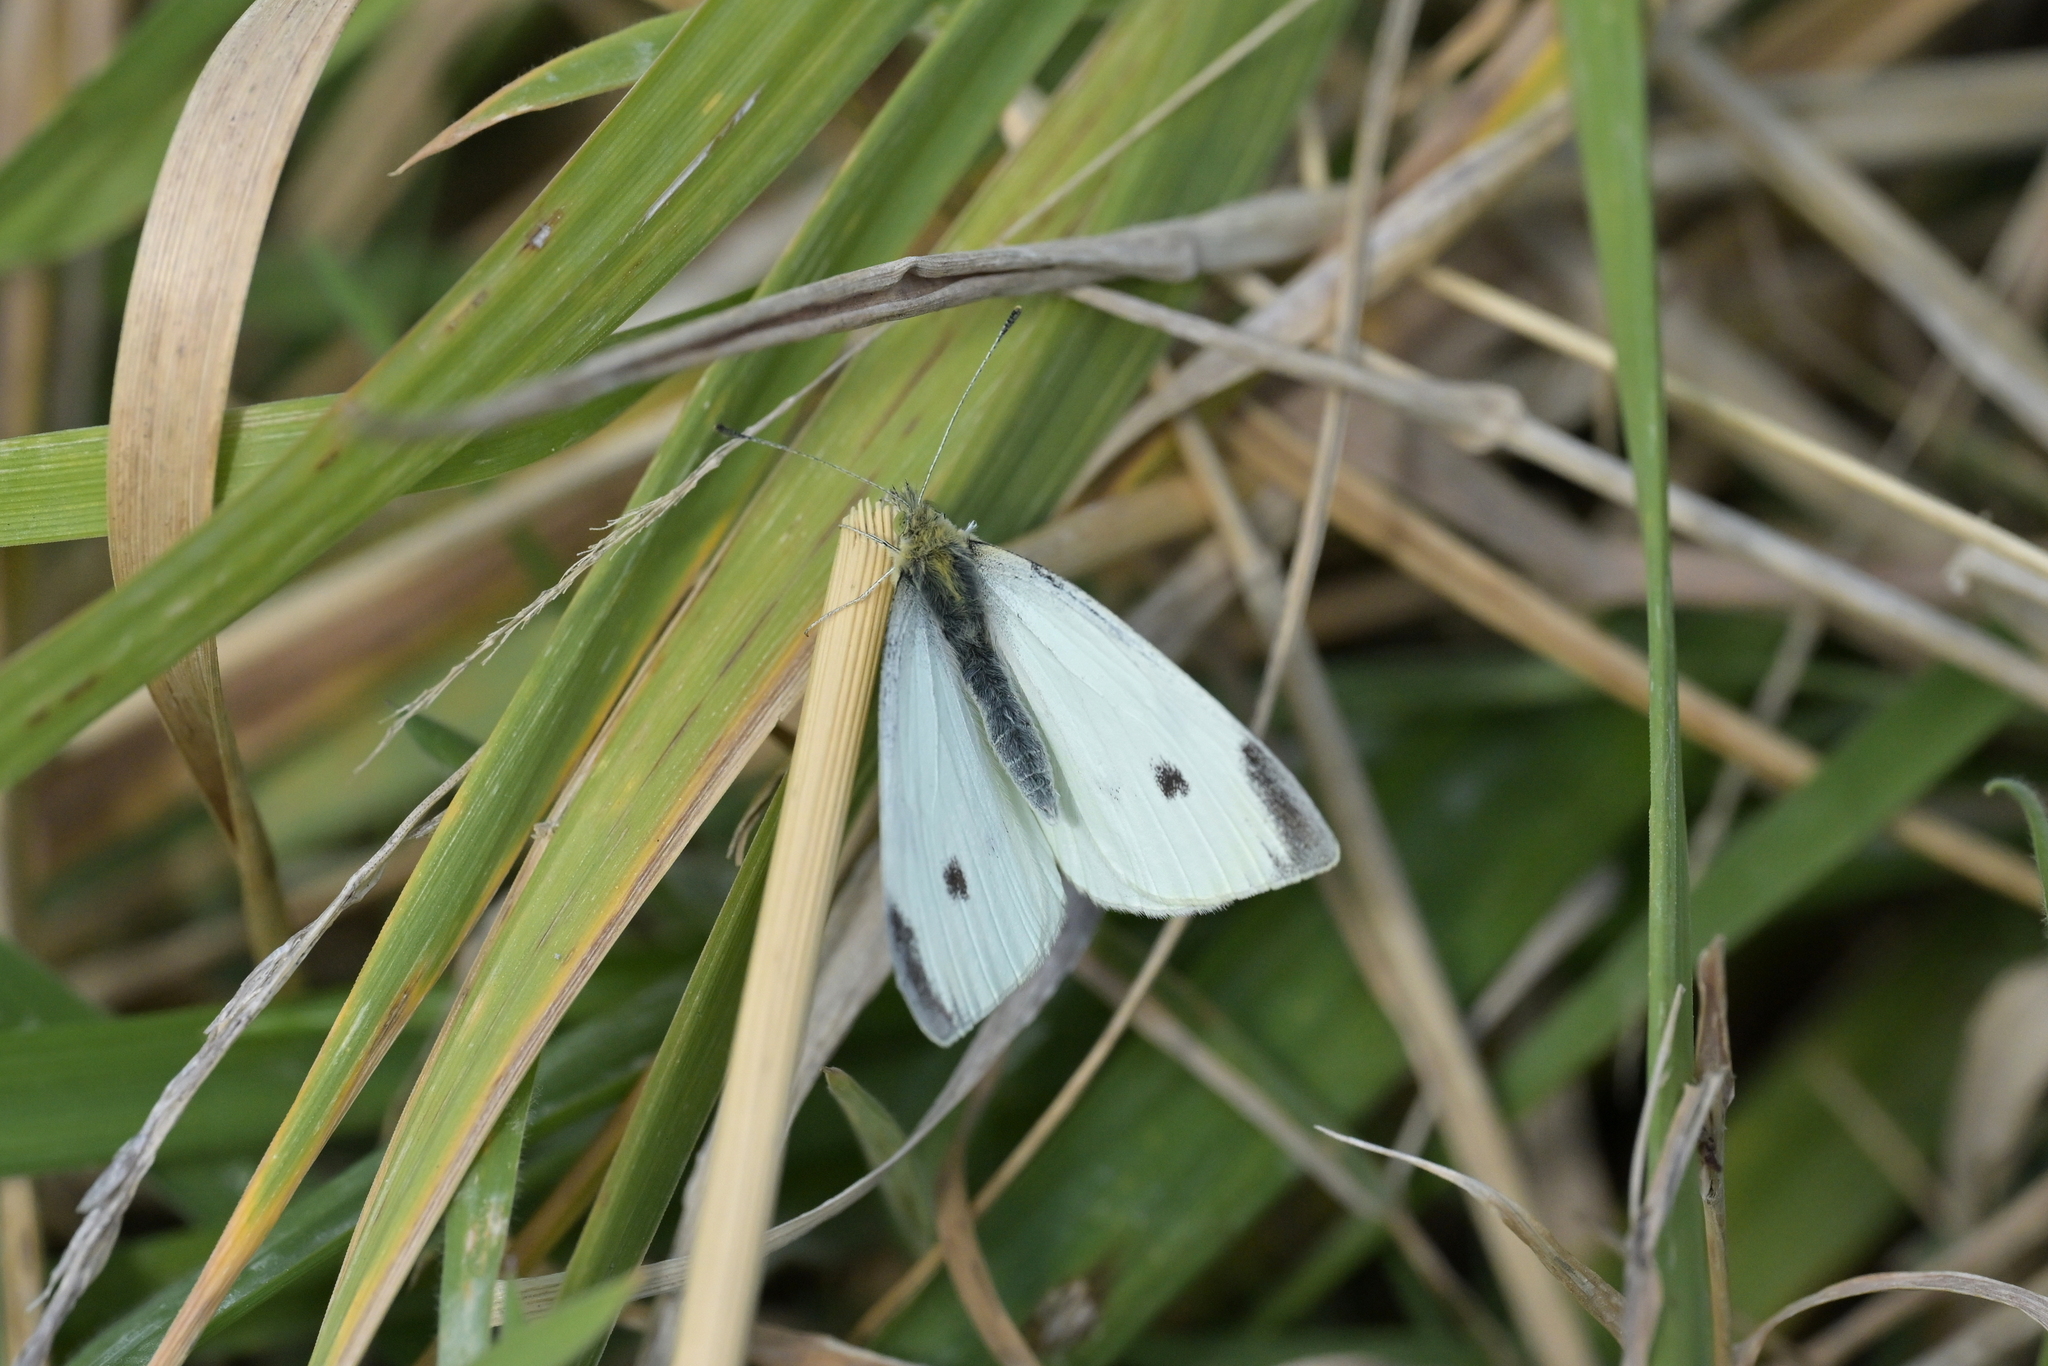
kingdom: Animalia
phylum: Arthropoda
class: Insecta
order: Lepidoptera
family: Pieridae
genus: Pieris
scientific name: Pieris rapae
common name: Small white
